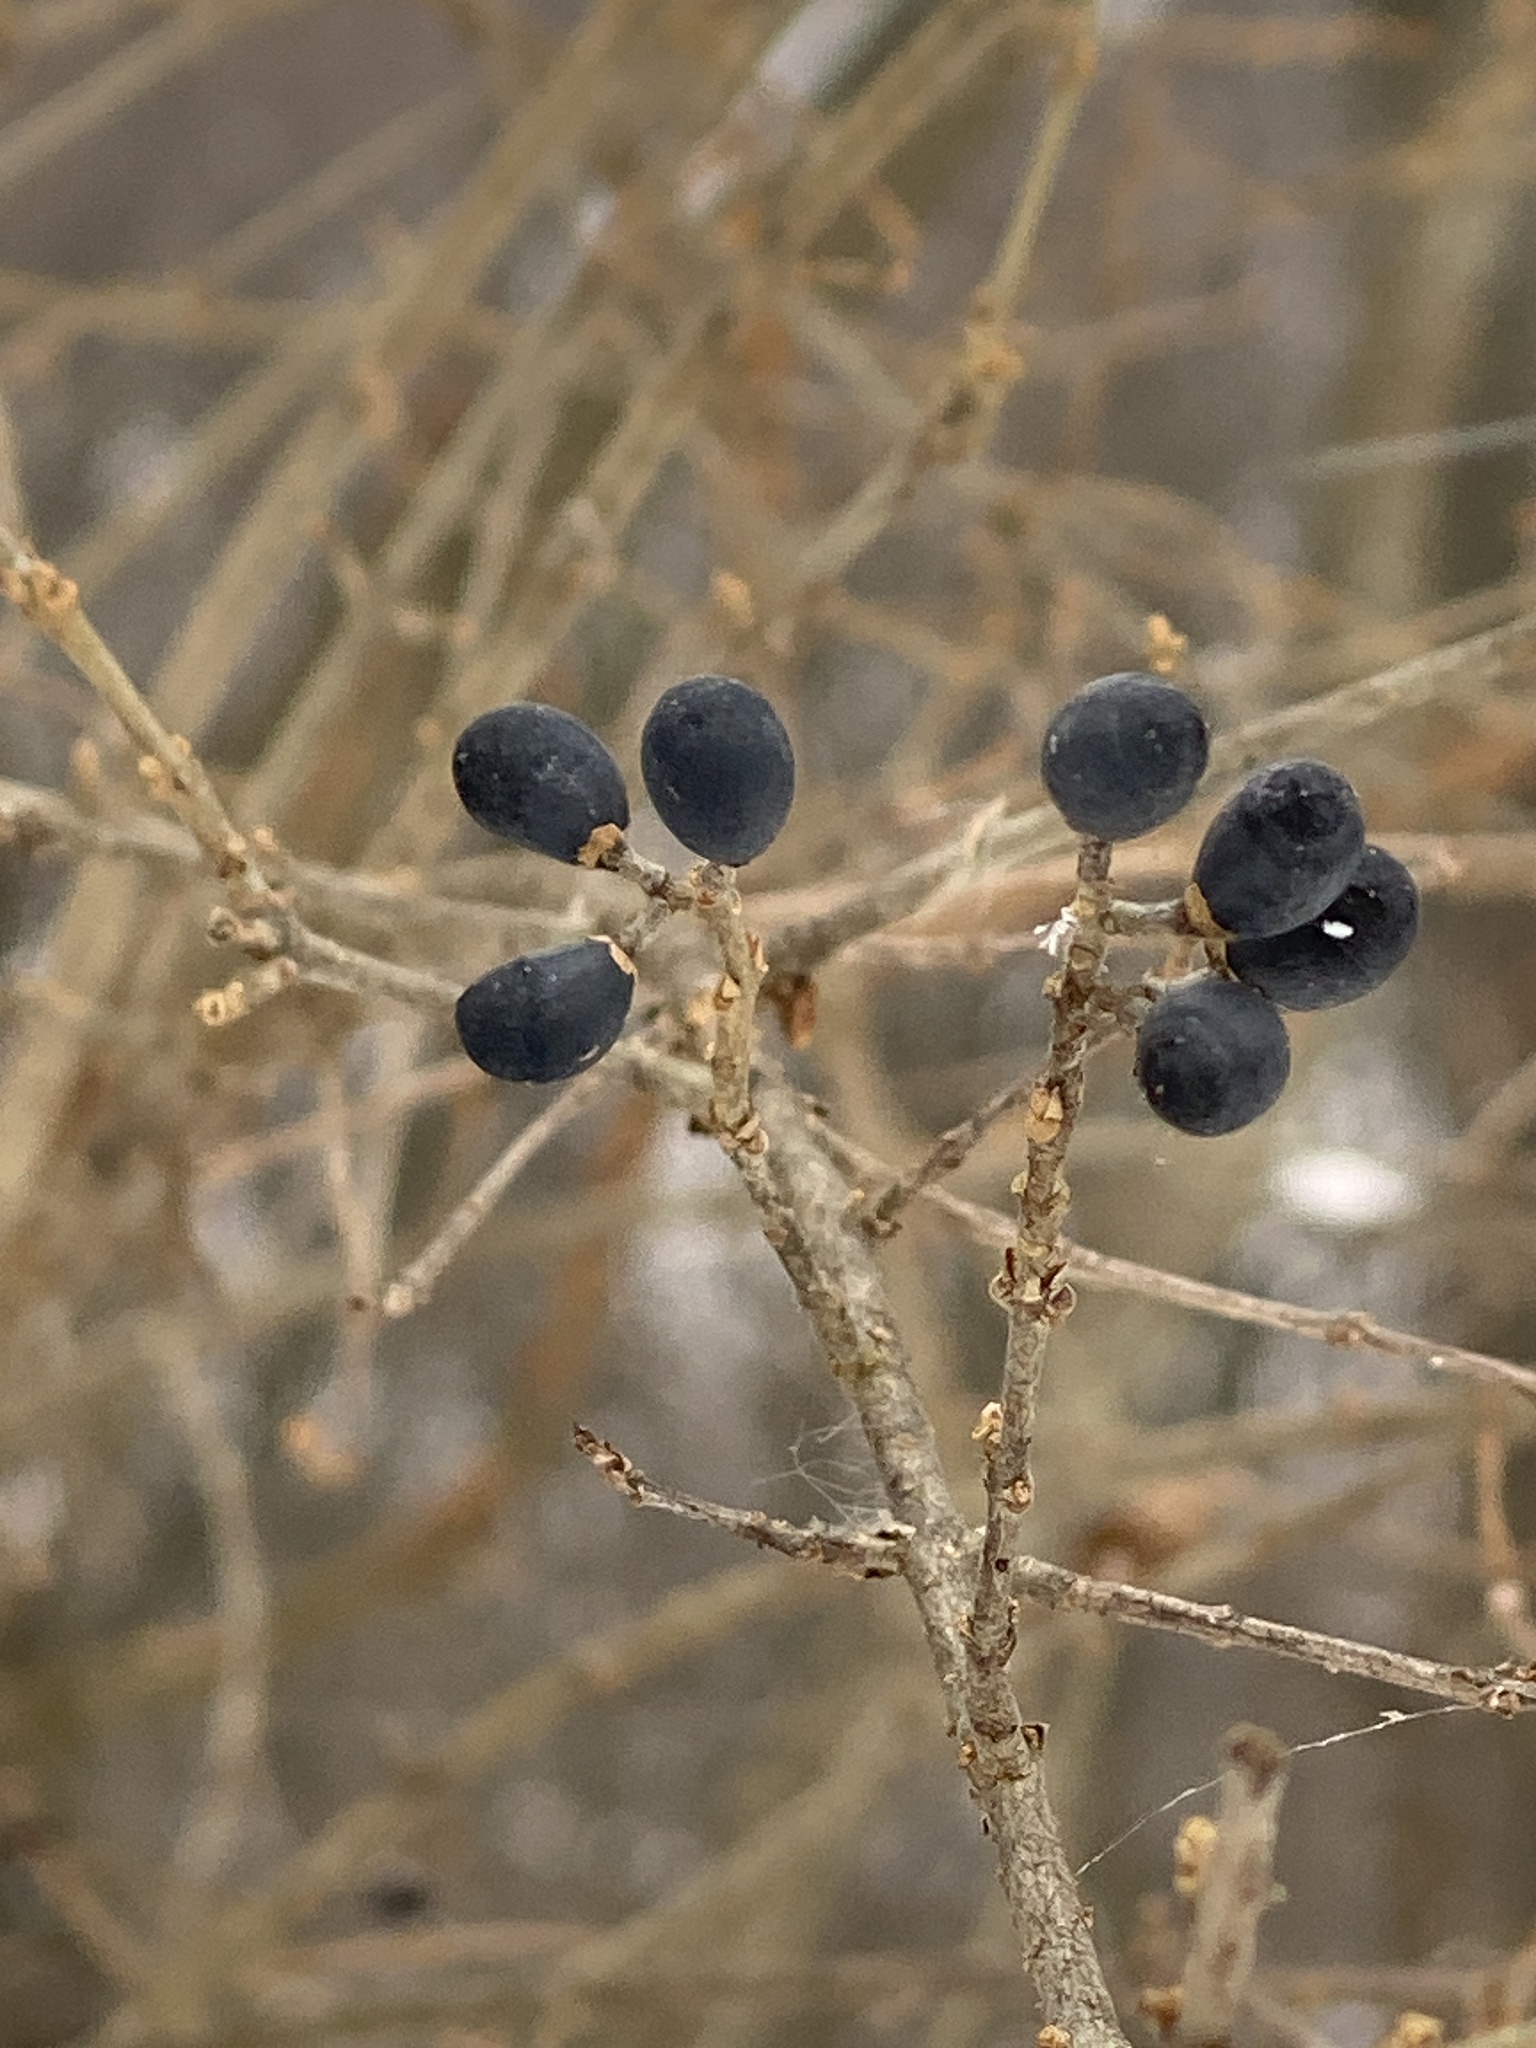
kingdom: Plantae
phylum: Tracheophyta
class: Magnoliopsida
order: Lamiales
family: Oleaceae
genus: Ligustrum
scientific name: Ligustrum obtusifolium
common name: Border privet
